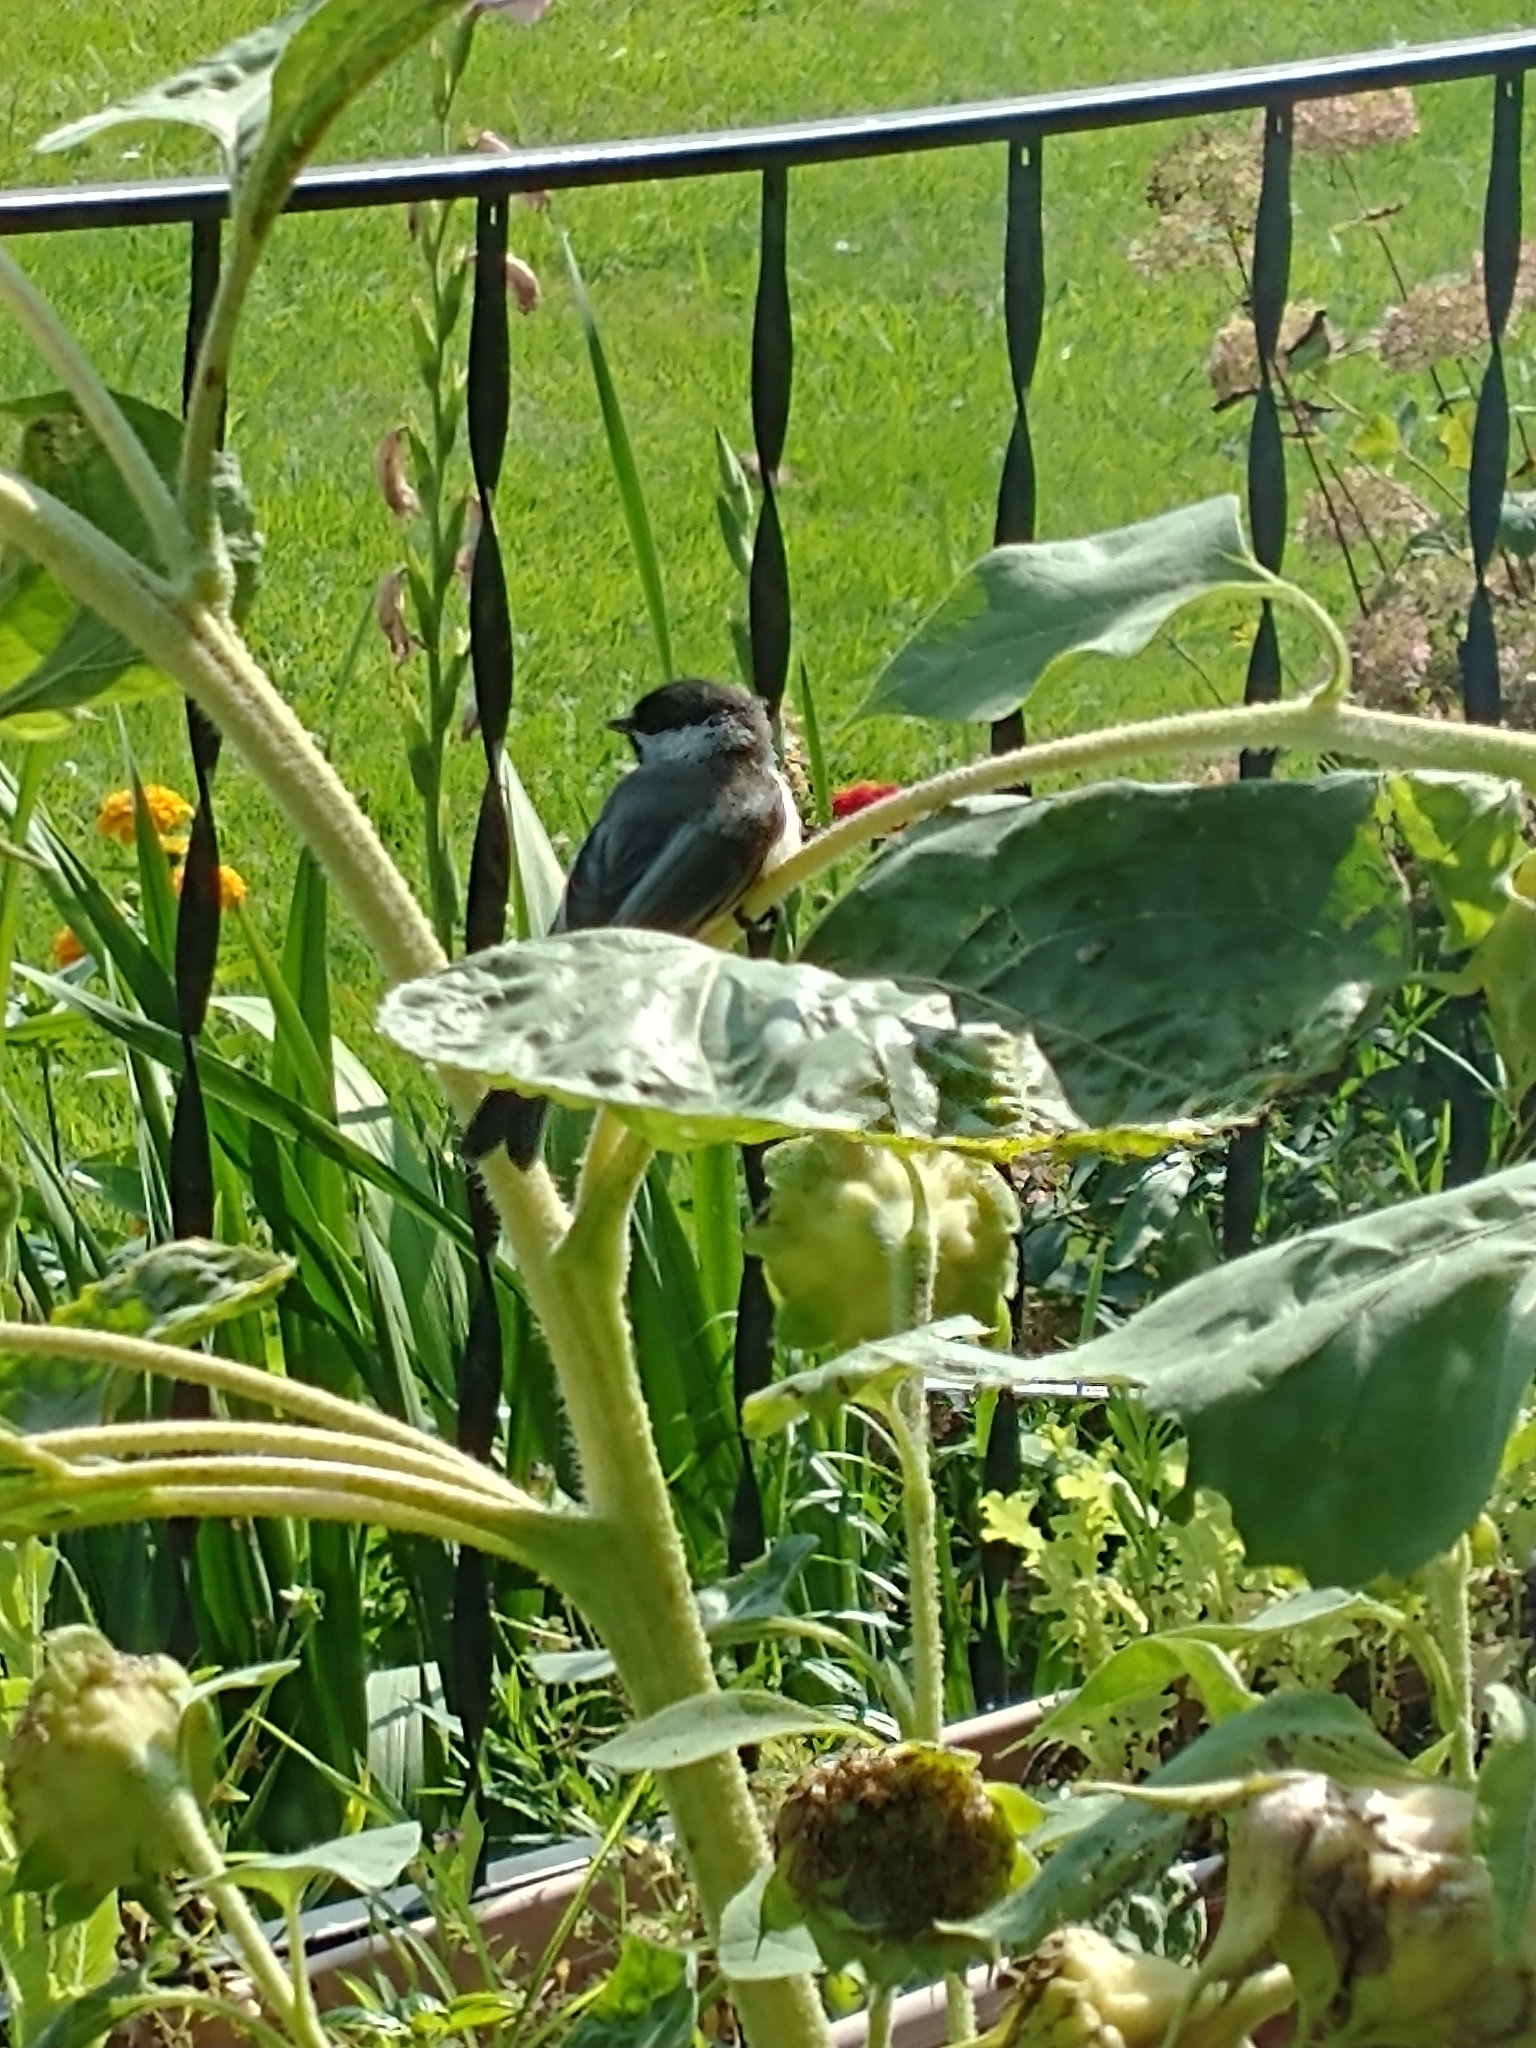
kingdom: Animalia
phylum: Chordata
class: Aves
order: Passeriformes
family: Paridae
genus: Poecile
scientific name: Poecile atricapillus
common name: Black-capped chickadee
